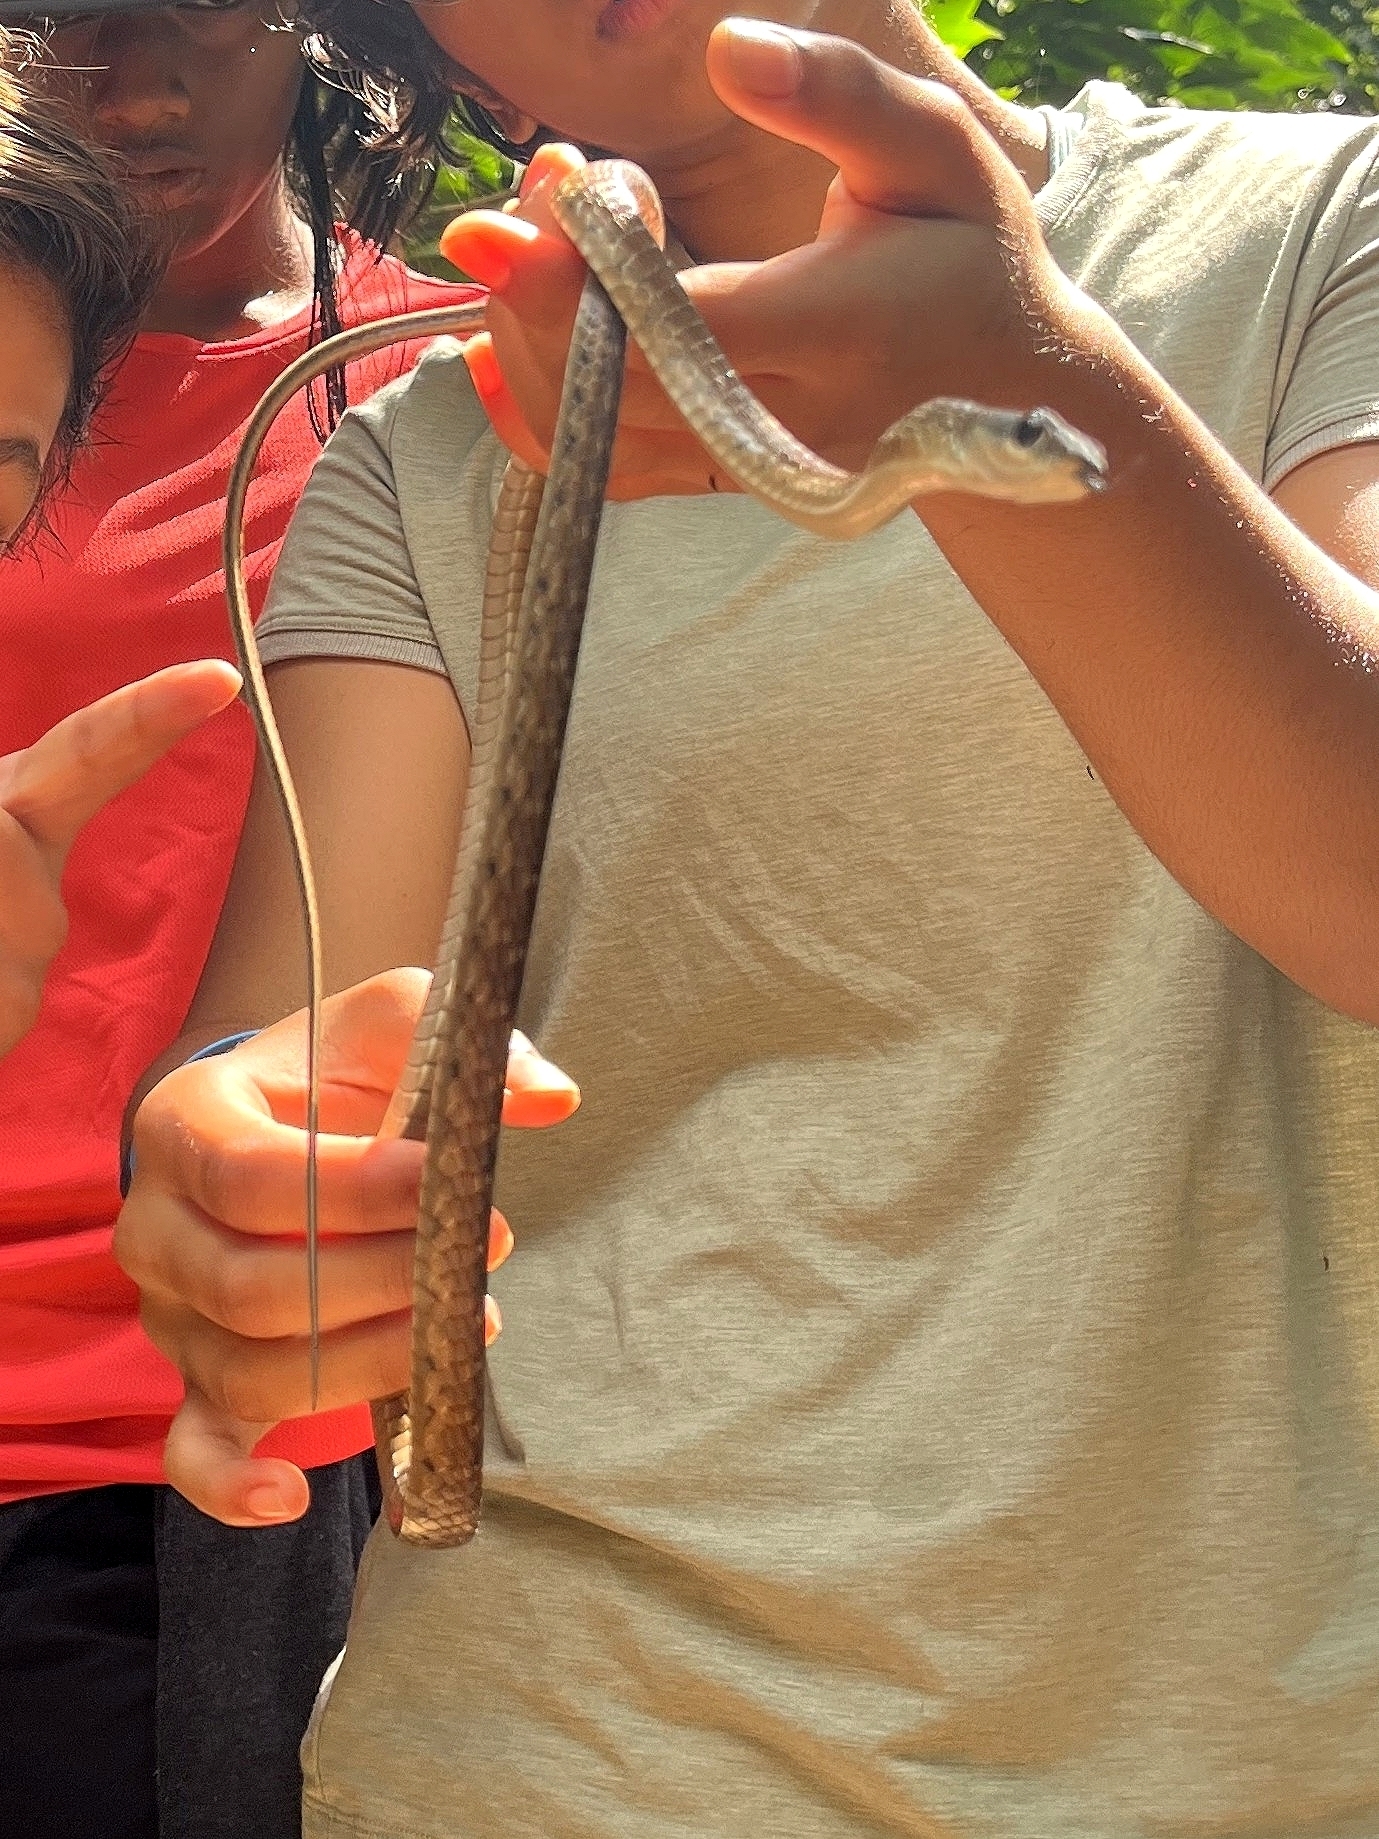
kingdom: Animalia
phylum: Chordata
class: Squamata
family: Colubridae
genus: Dendrelaphis
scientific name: Dendrelaphis grandoculis
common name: Southern bronzeback
